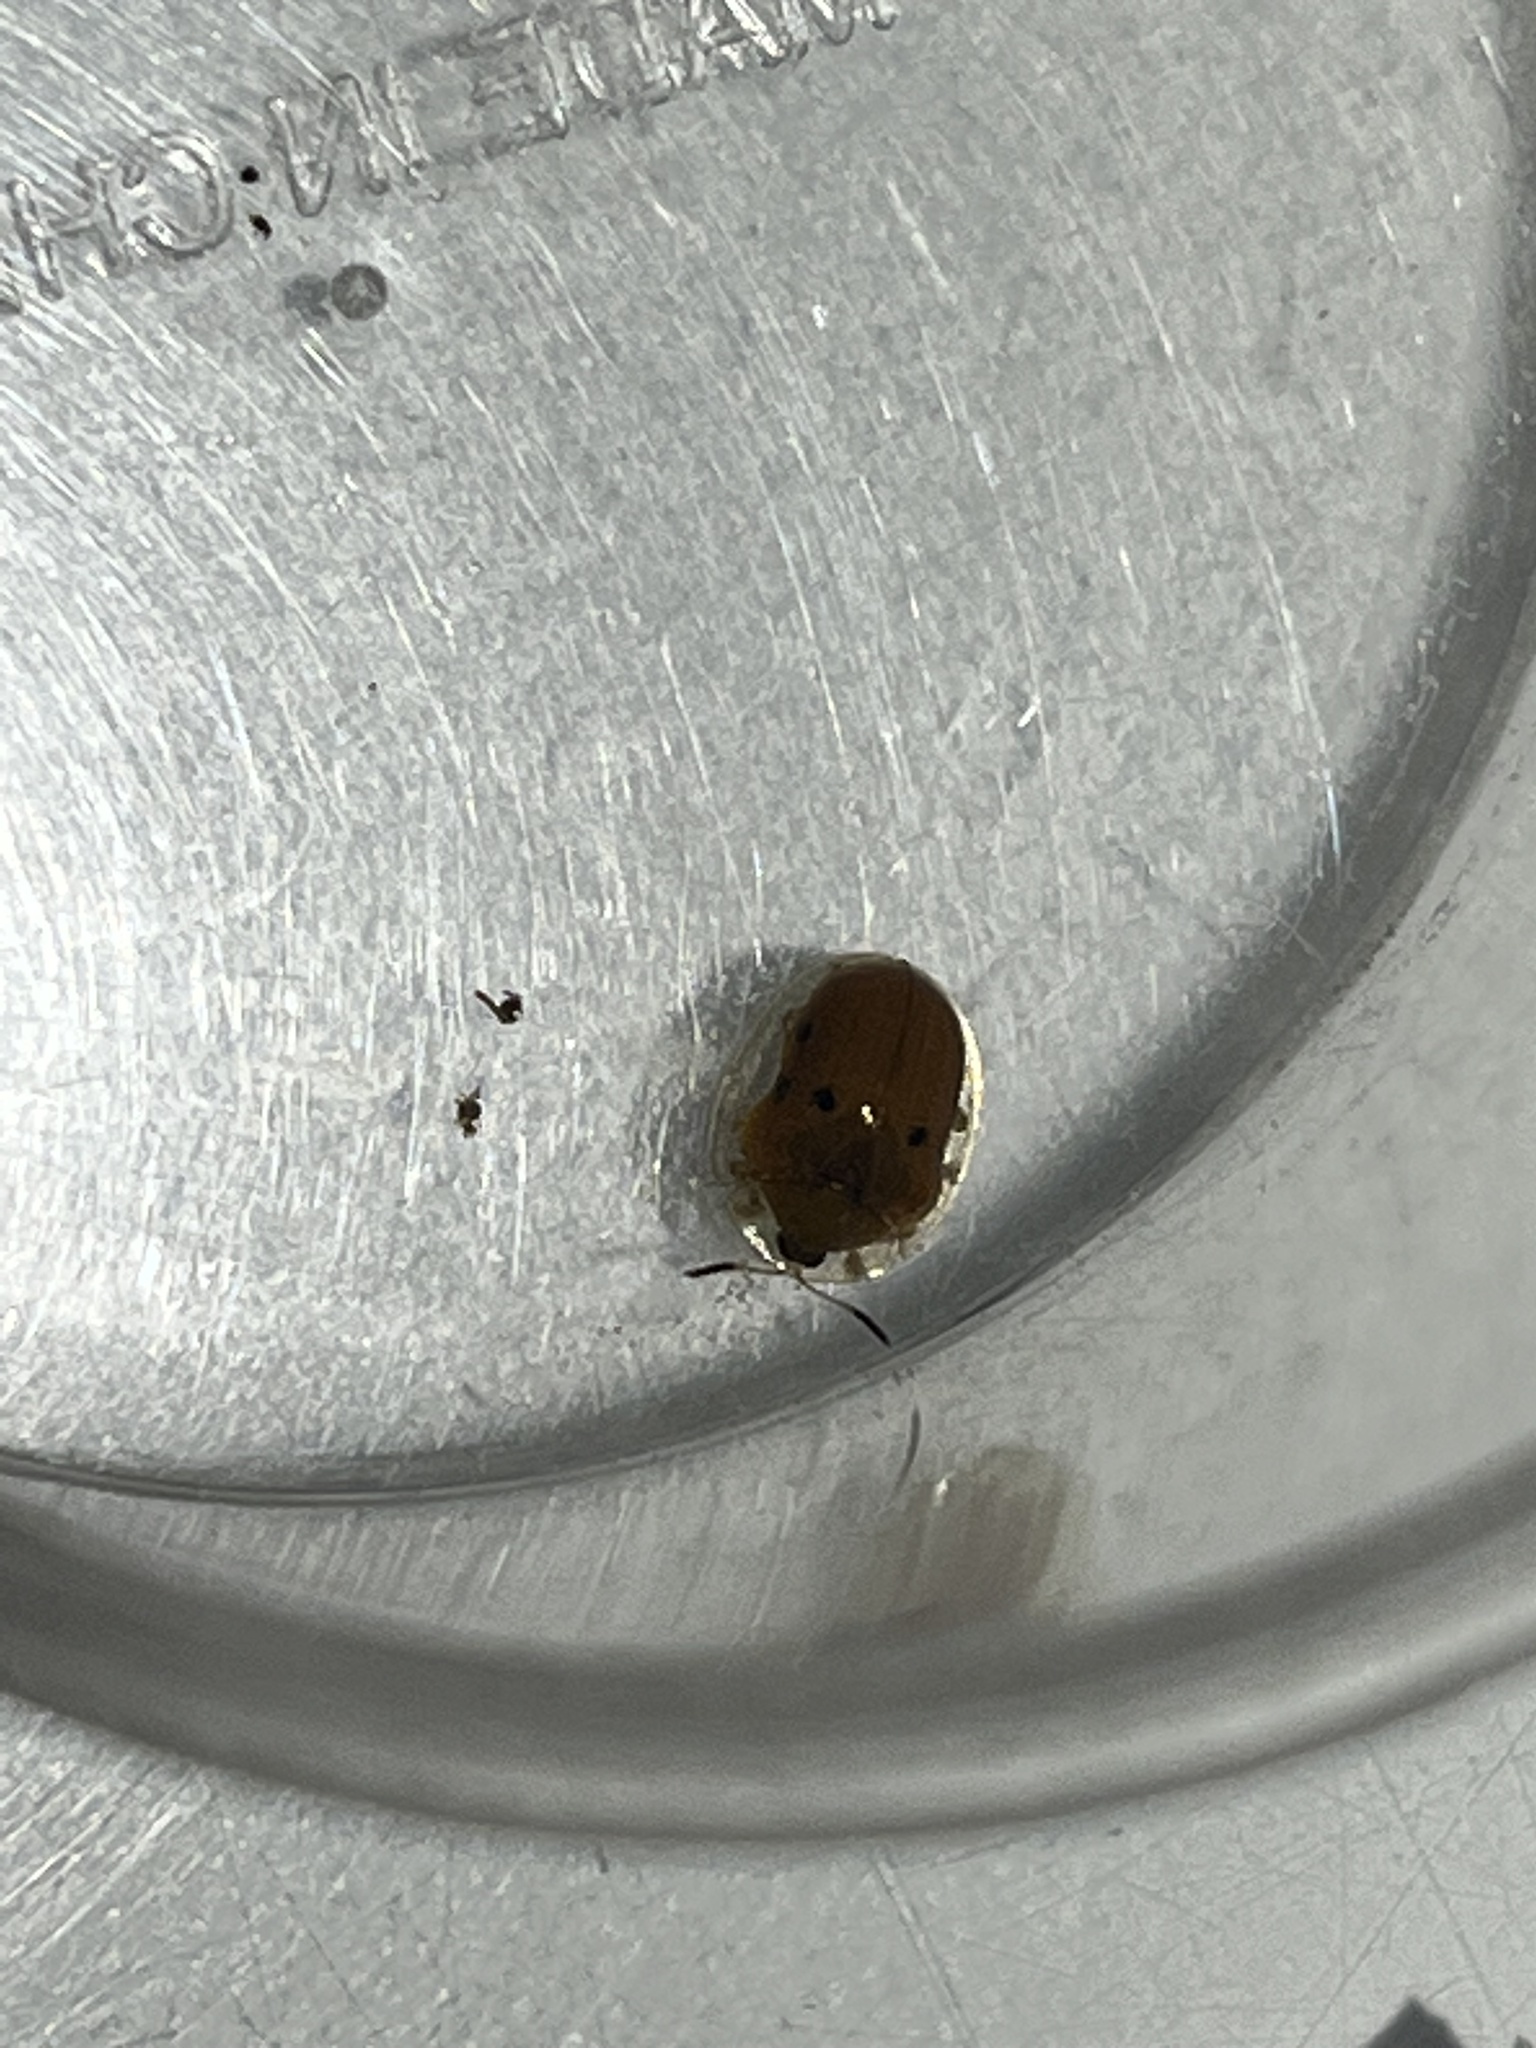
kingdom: Animalia
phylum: Arthropoda
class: Insecta
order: Coleoptera
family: Chrysomelidae
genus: Charidotella
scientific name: Charidotella sexpunctata
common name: Golden tortoise beetle
